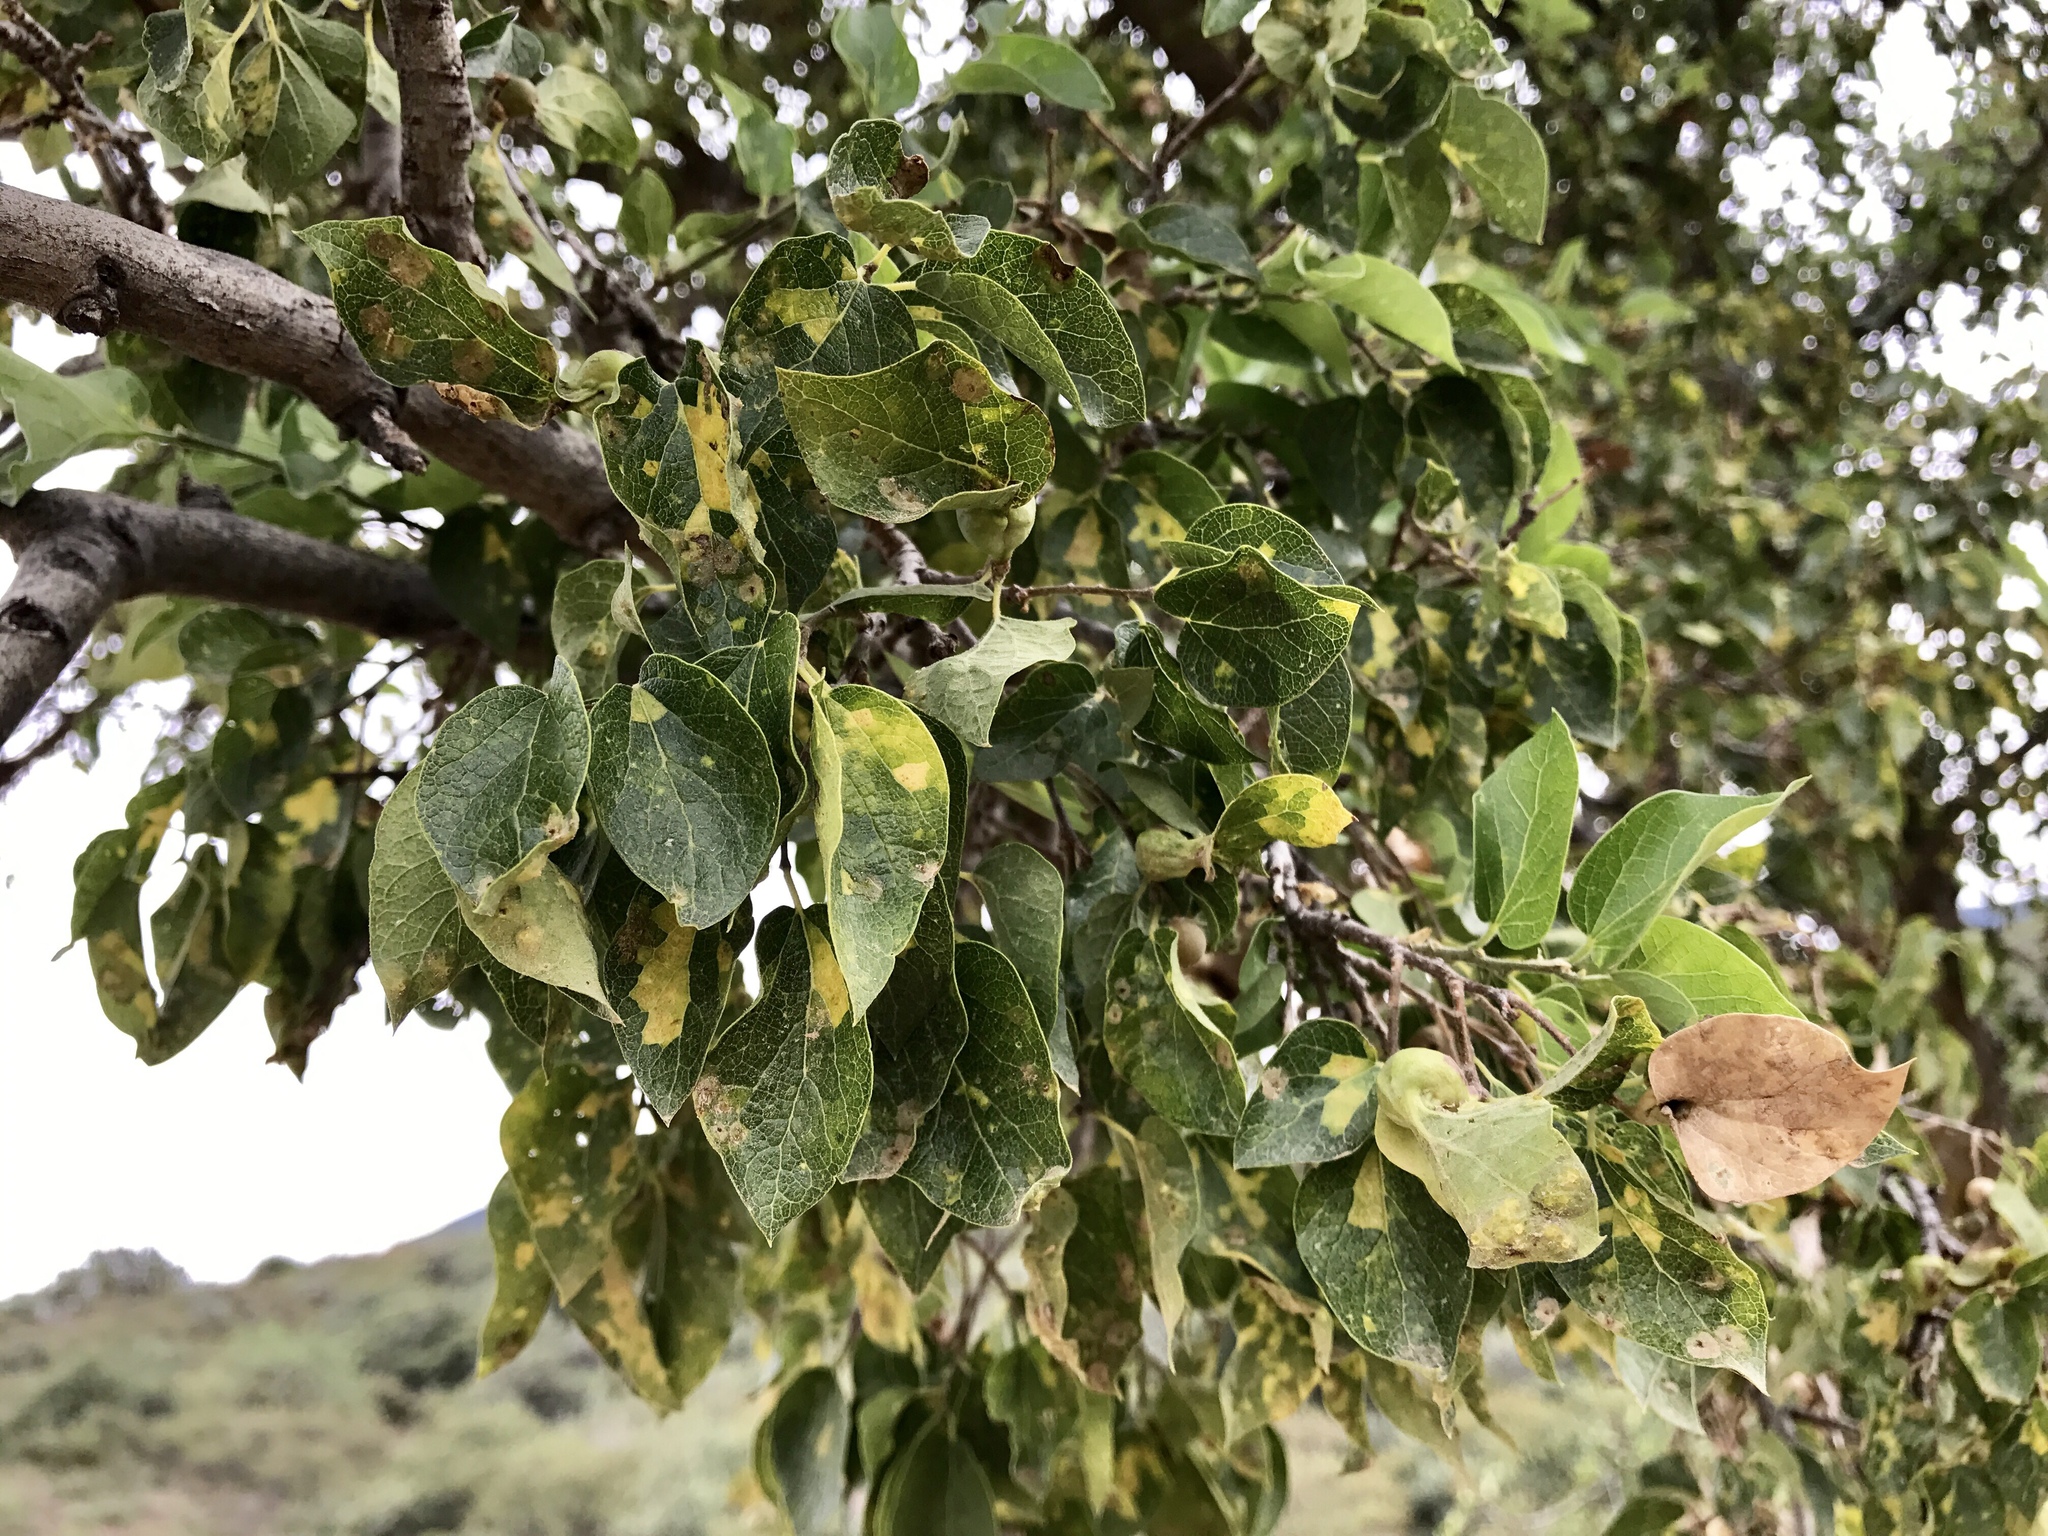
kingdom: Plantae
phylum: Tracheophyta
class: Magnoliopsida
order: Rosales
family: Cannabaceae
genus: Celtis
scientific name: Celtis reticulata
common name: Netleaf hackberry
